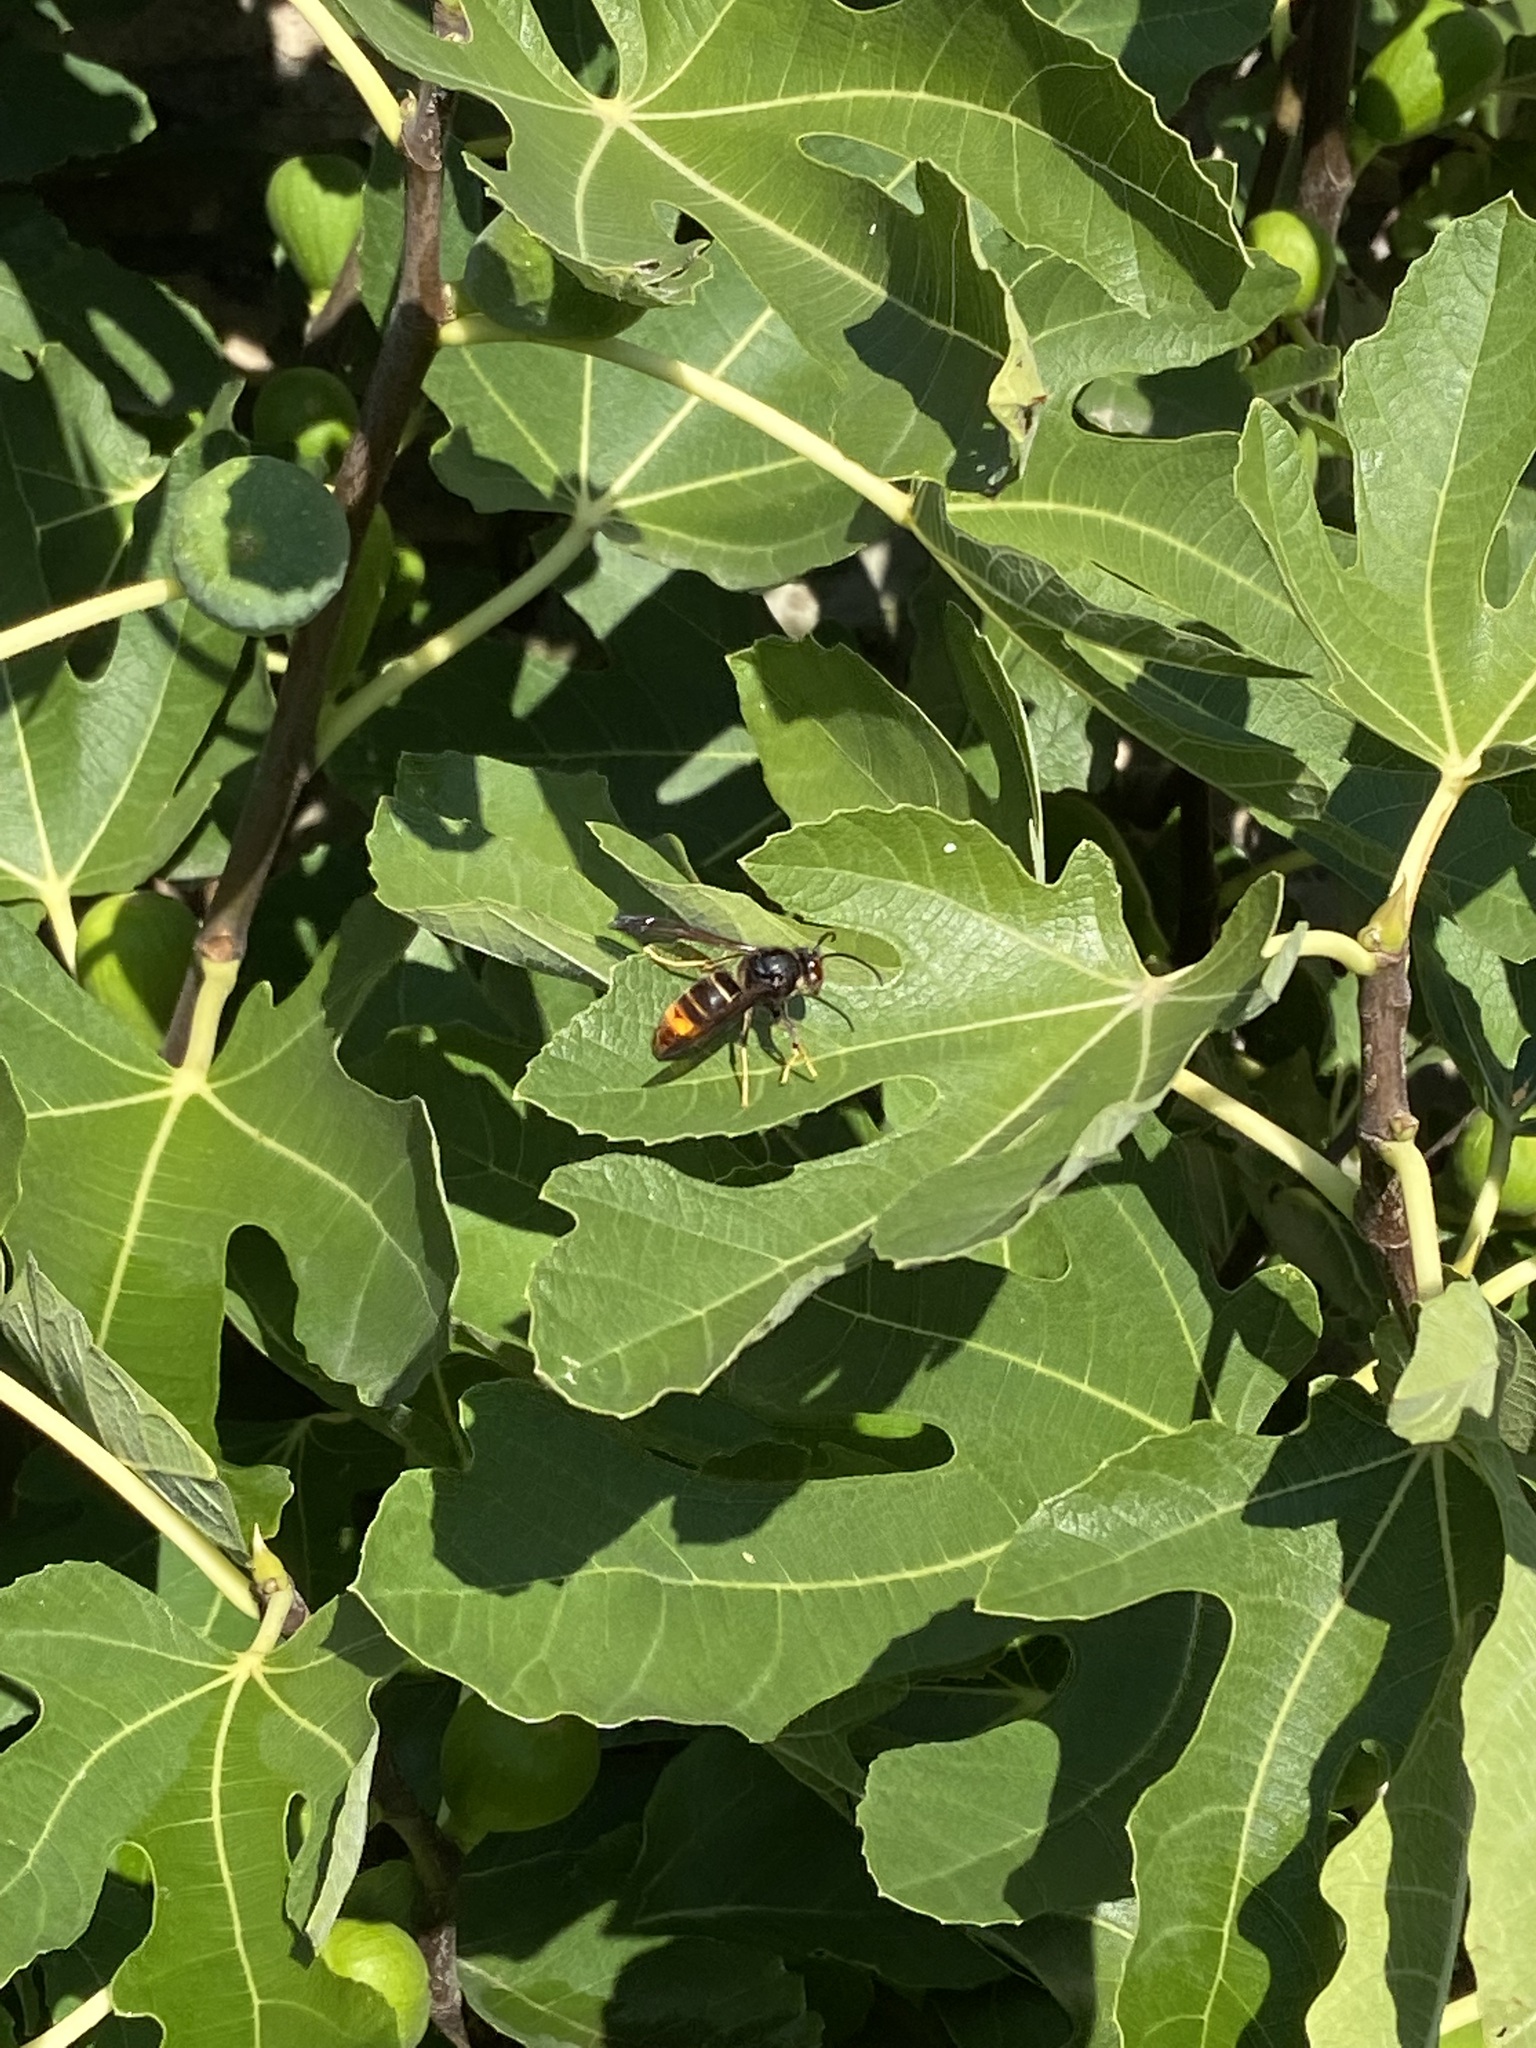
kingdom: Animalia
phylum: Arthropoda
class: Insecta
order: Hymenoptera
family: Vespidae
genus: Vespa
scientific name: Vespa velutina
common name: Asian hornet
